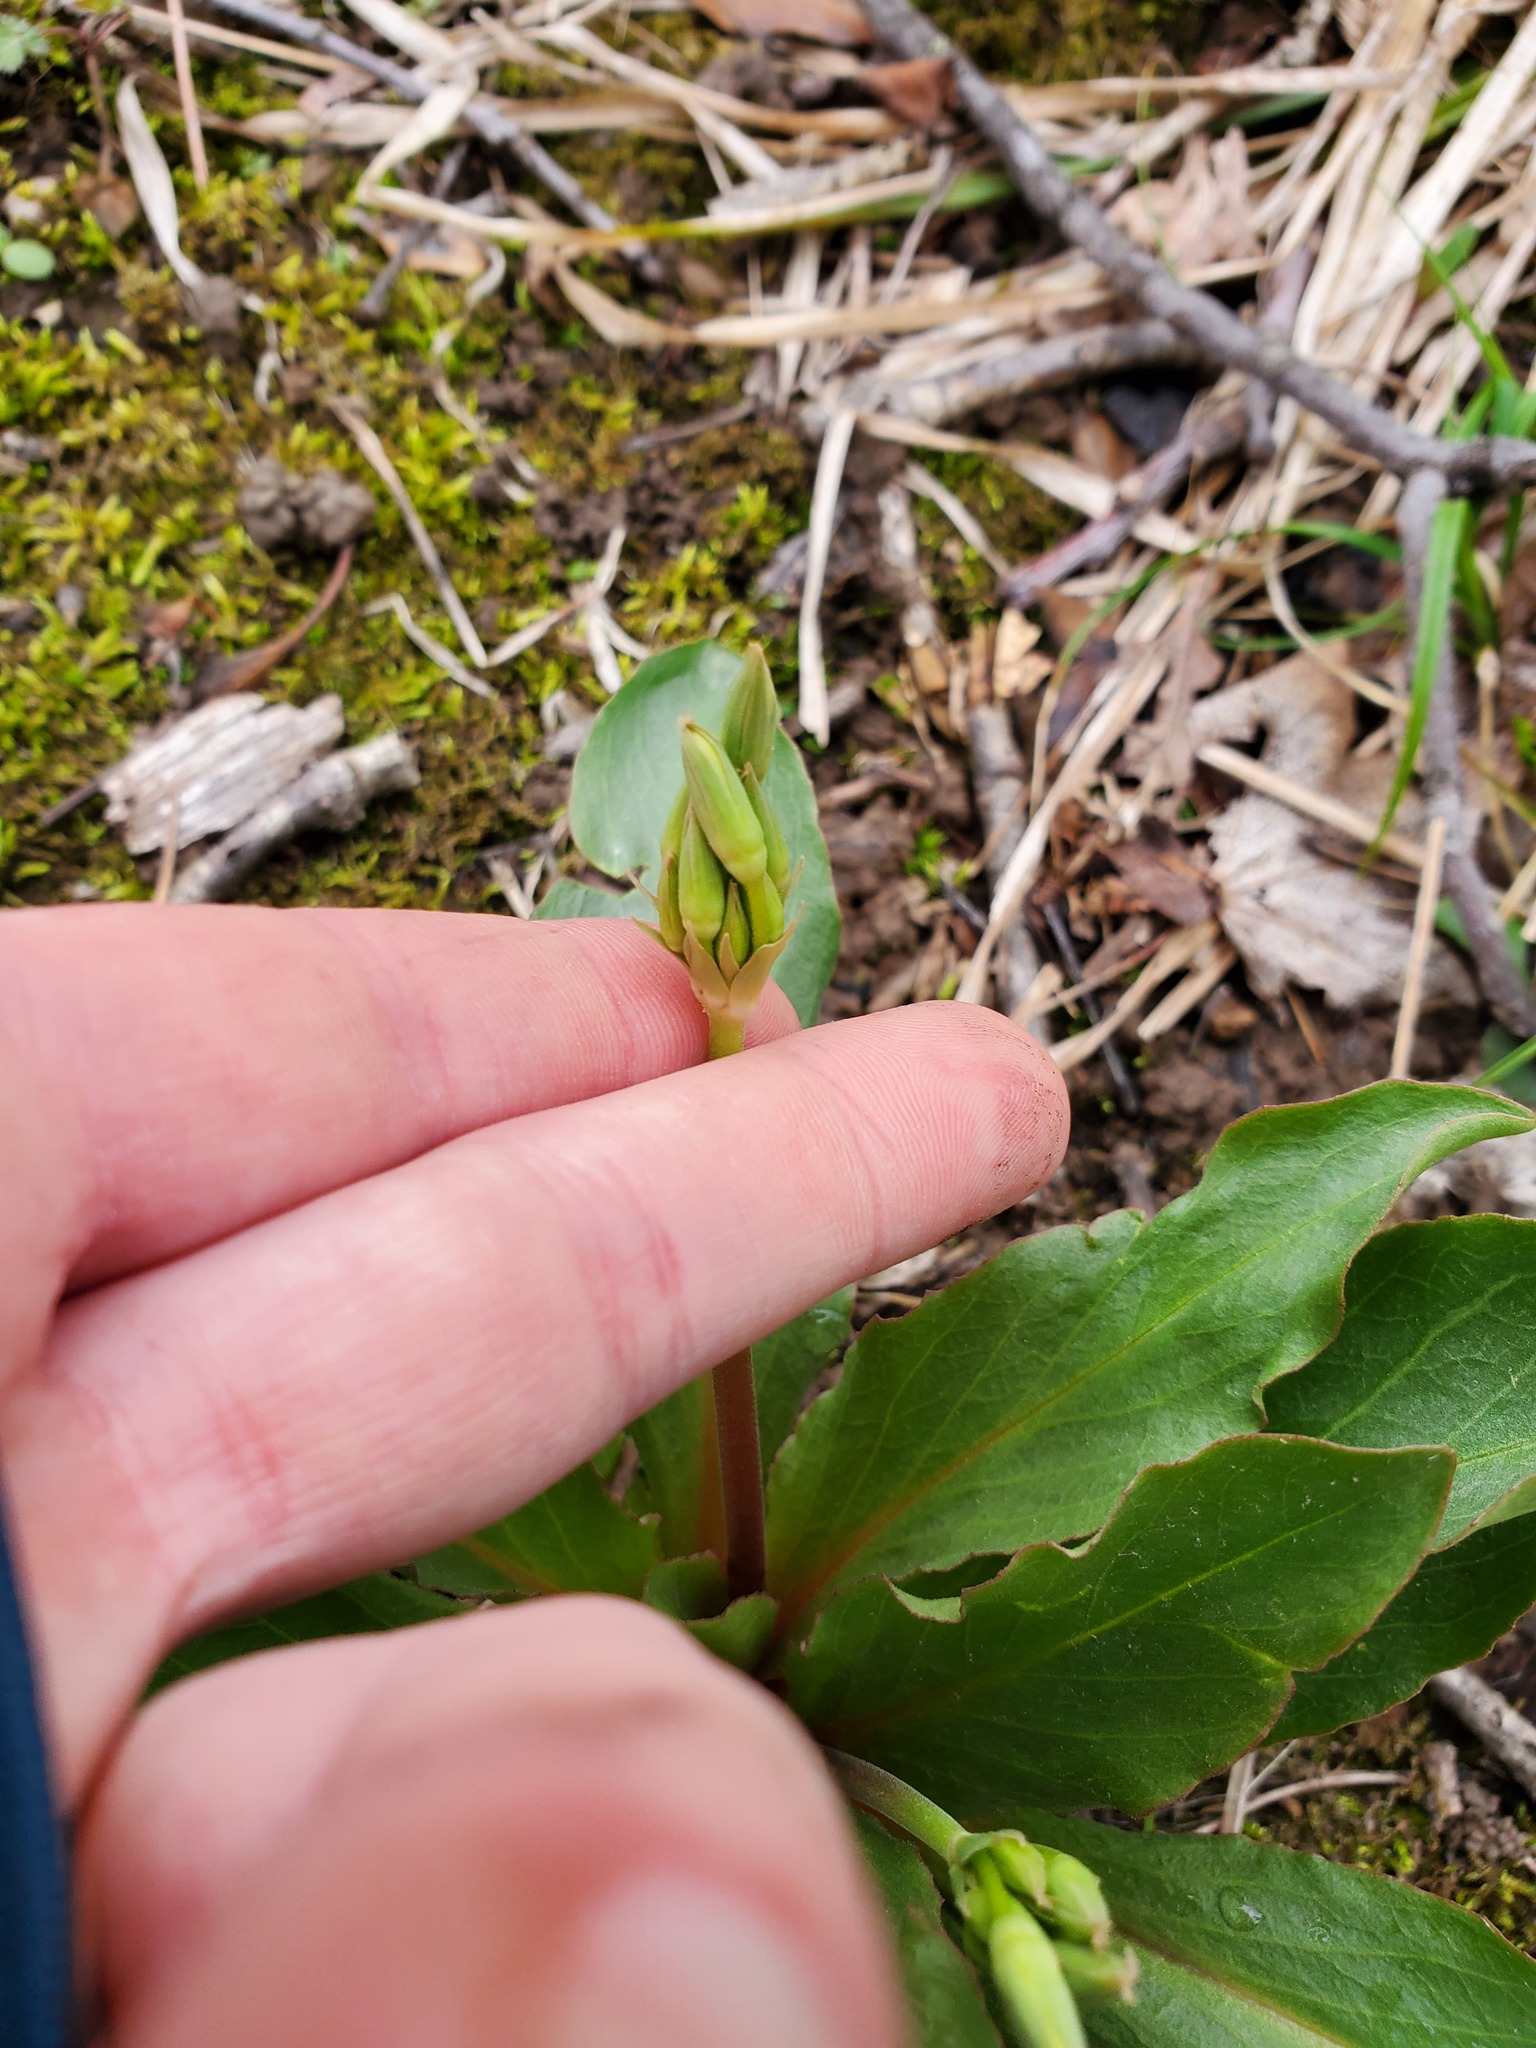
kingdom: Plantae
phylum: Tracheophyta
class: Magnoliopsida
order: Ericales
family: Primulaceae
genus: Dodecatheon
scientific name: Dodecatheon meadia
